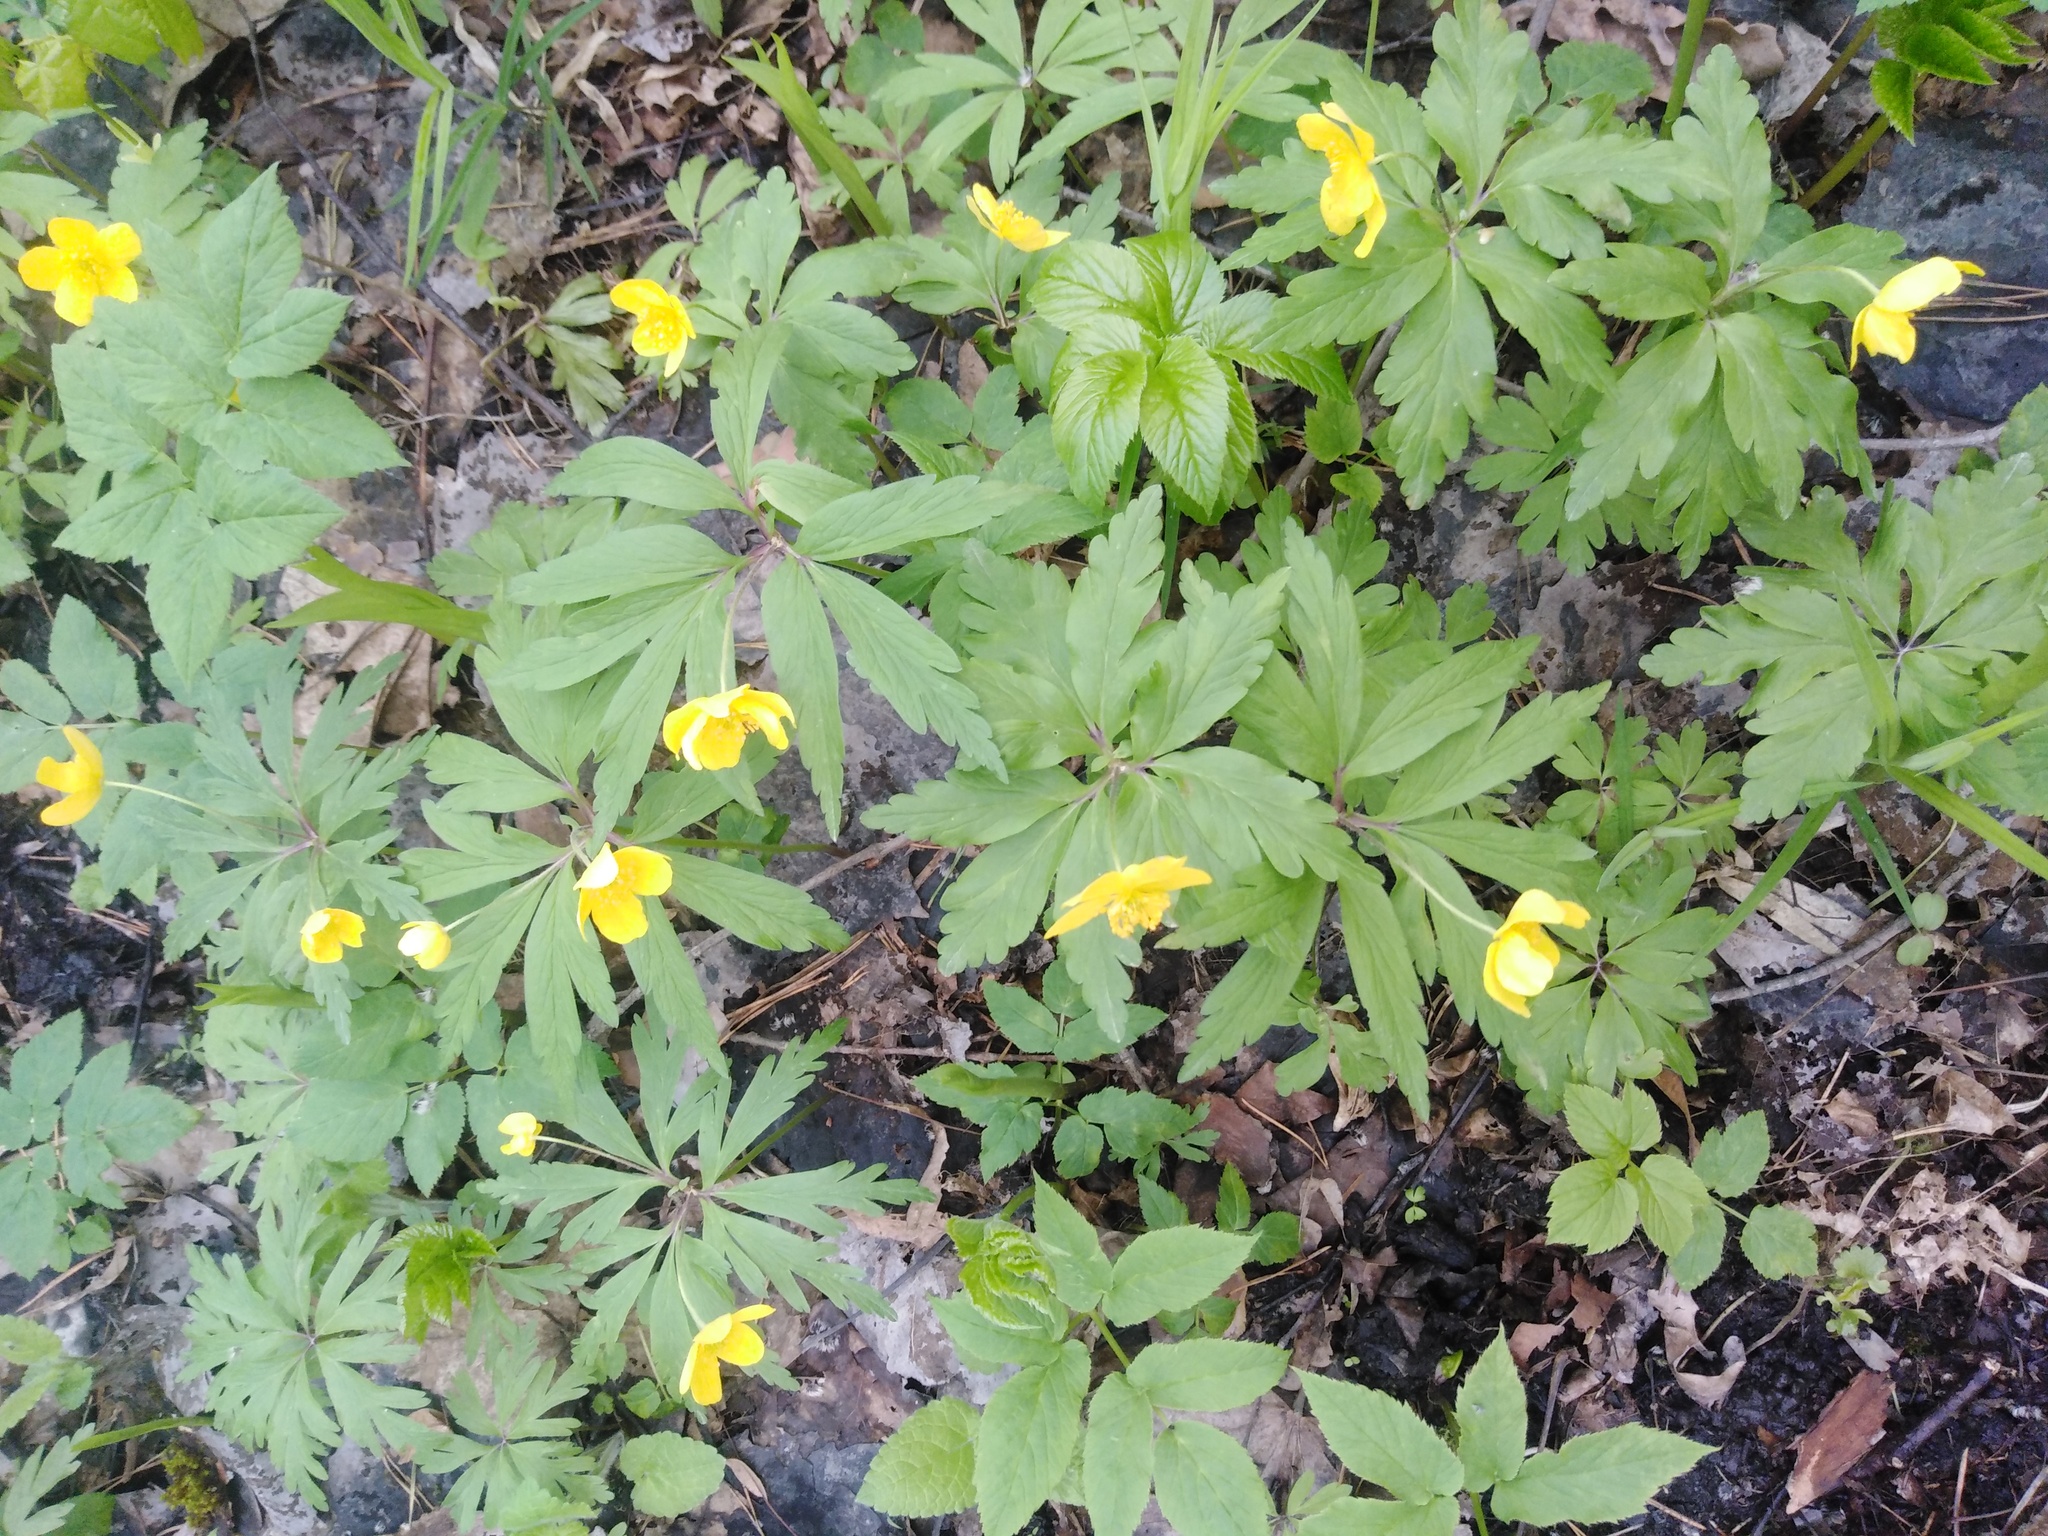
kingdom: Plantae
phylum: Tracheophyta
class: Magnoliopsida
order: Ranunculales
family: Ranunculaceae
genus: Anemone
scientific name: Anemone ranunculoides
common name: Yellow anemone
